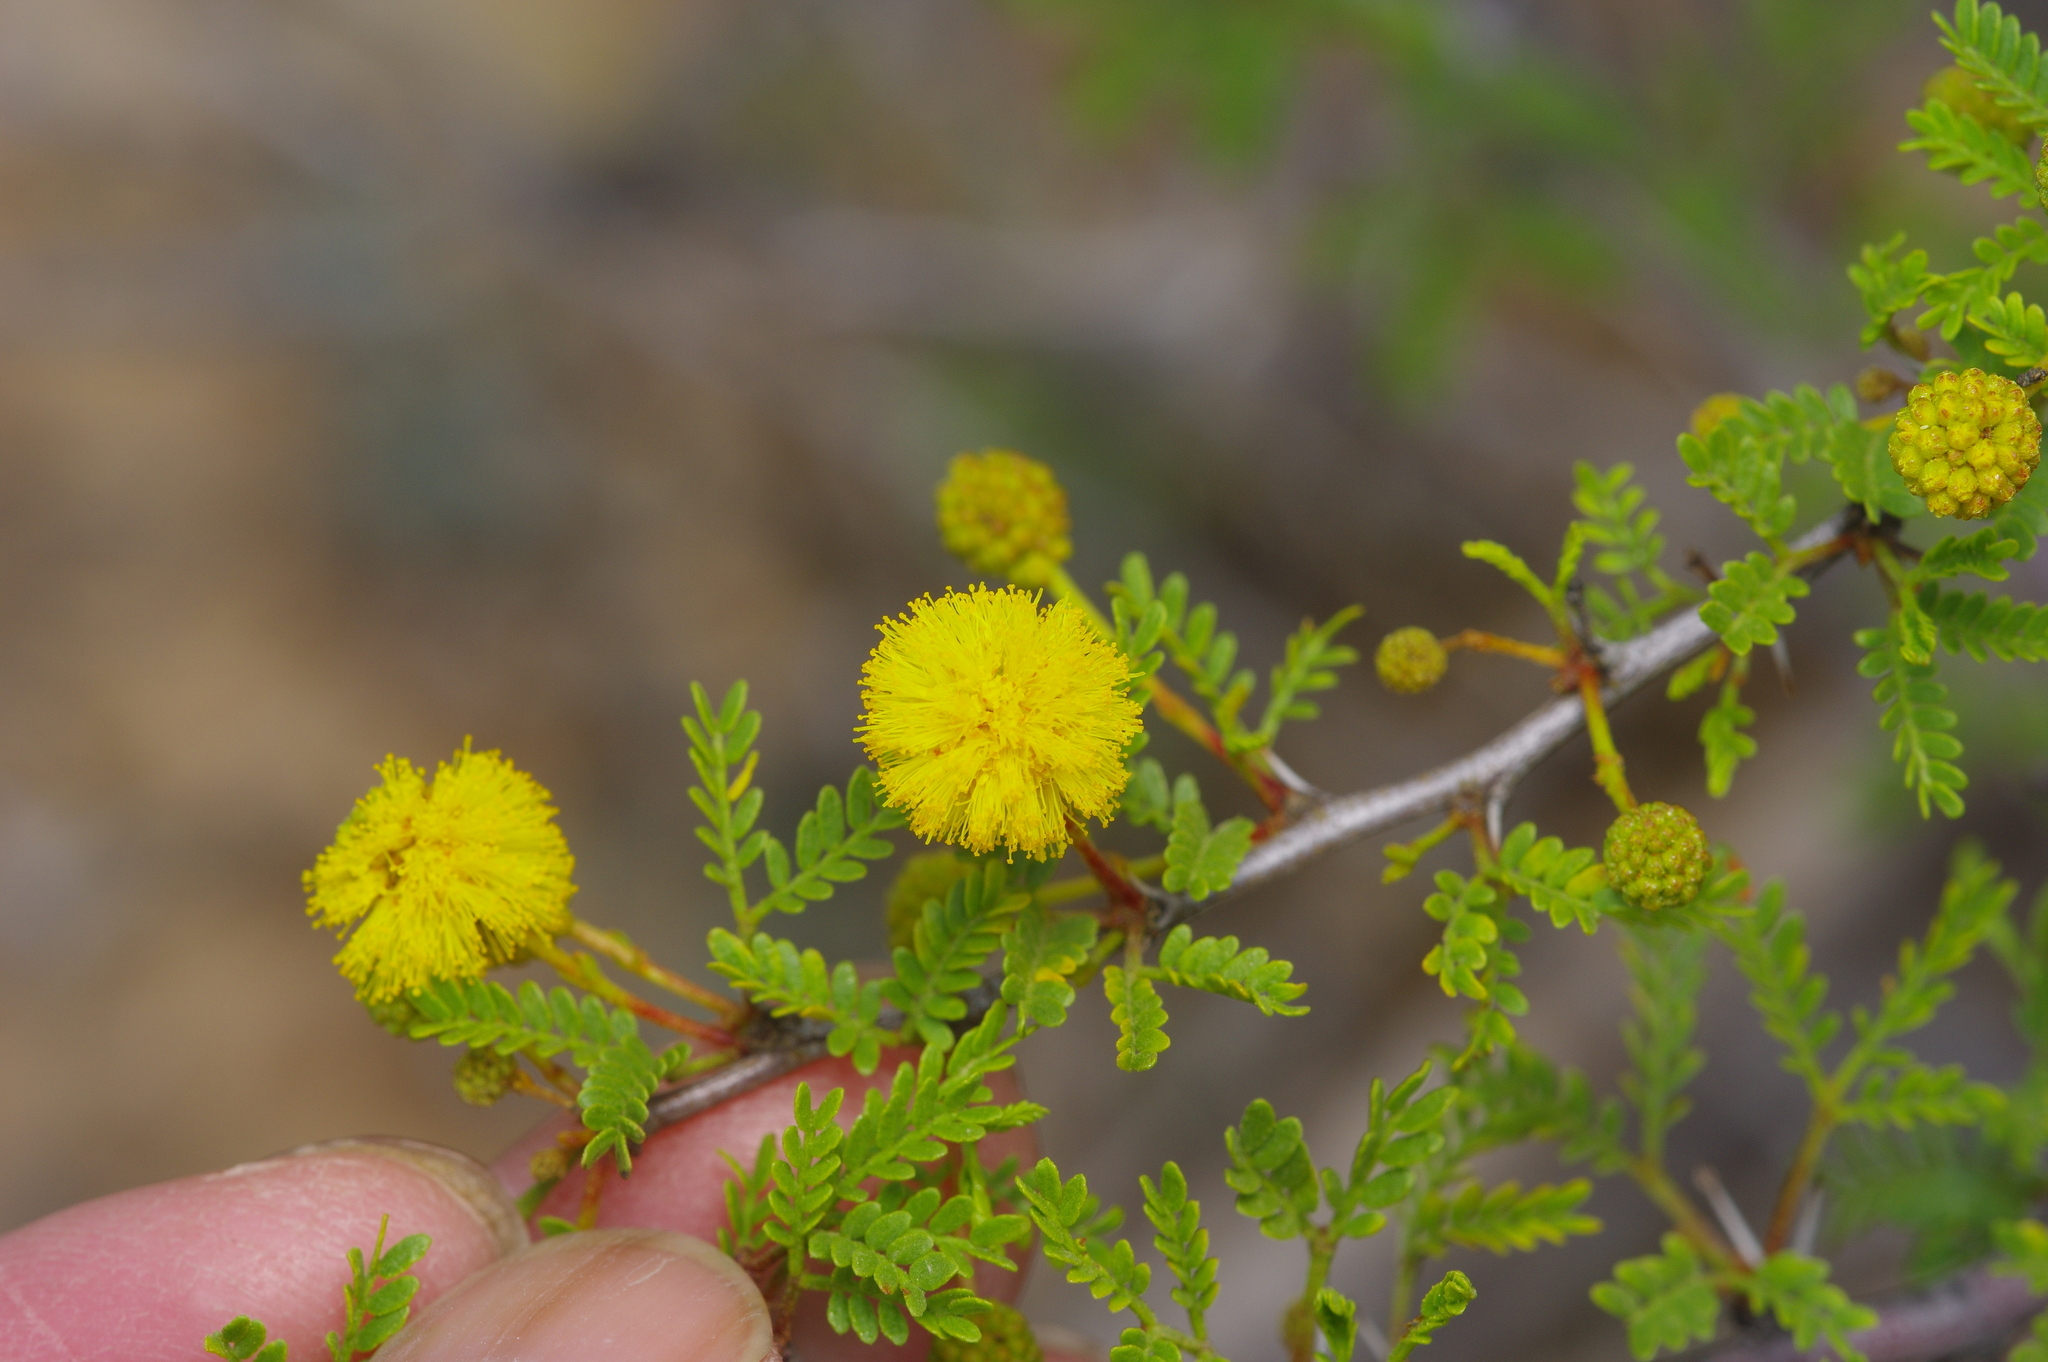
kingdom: Plantae
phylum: Tracheophyta
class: Magnoliopsida
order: Fabales
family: Fabaceae
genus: Vachellia
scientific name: Vachellia vernicosa
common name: Viscid acacia
